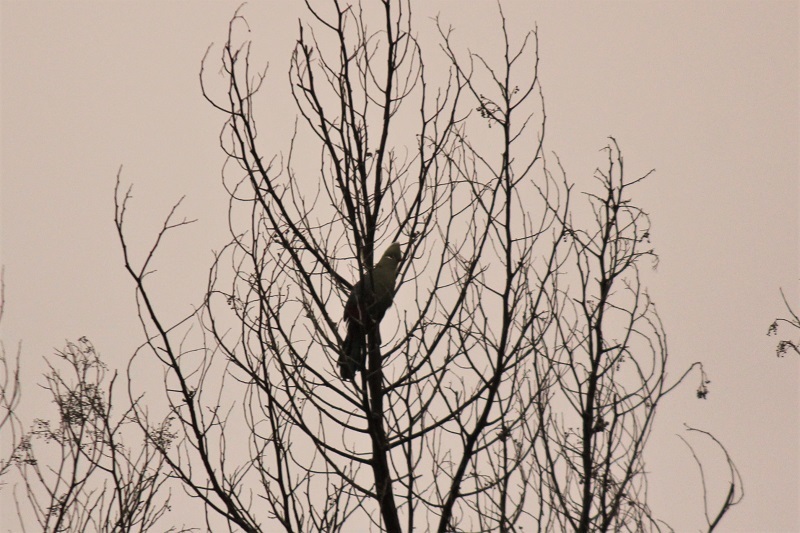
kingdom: Animalia
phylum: Chordata
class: Aves
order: Musophagiformes
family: Musophagidae
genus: Tauraco
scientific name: Tauraco corythaix
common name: Knysna turaco
